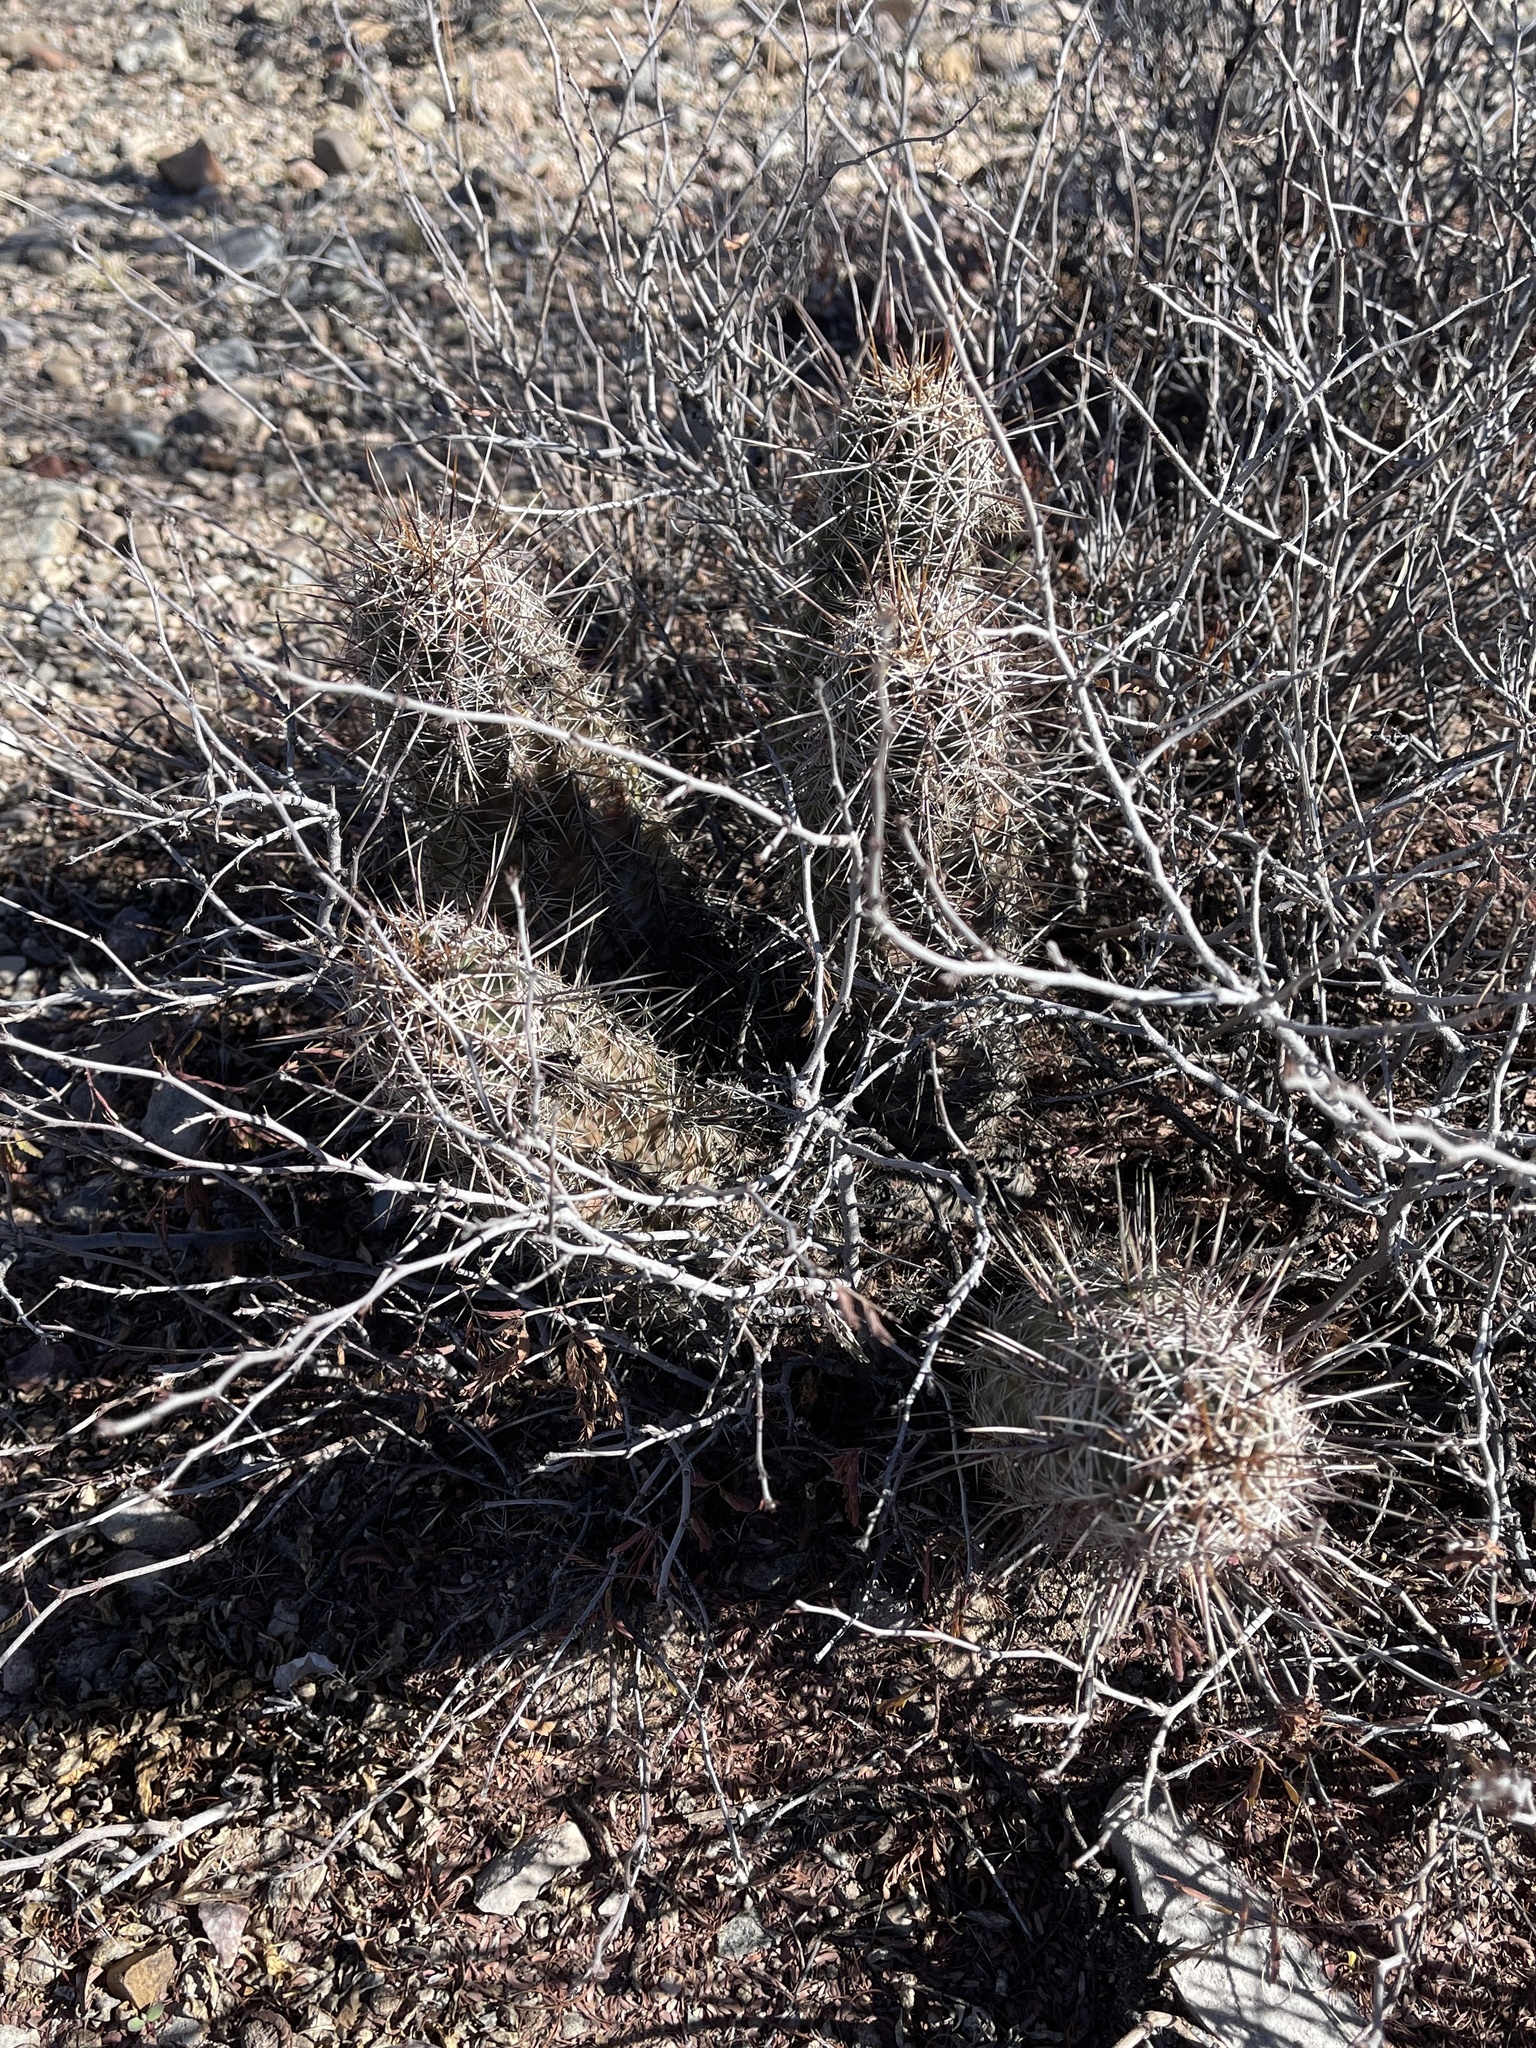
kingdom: Plantae
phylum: Tracheophyta
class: Magnoliopsida
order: Caryophyllales
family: Cactaceae
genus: Echinocereus
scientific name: Echinocereus fasciculatus
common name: Bundle hedgehog
